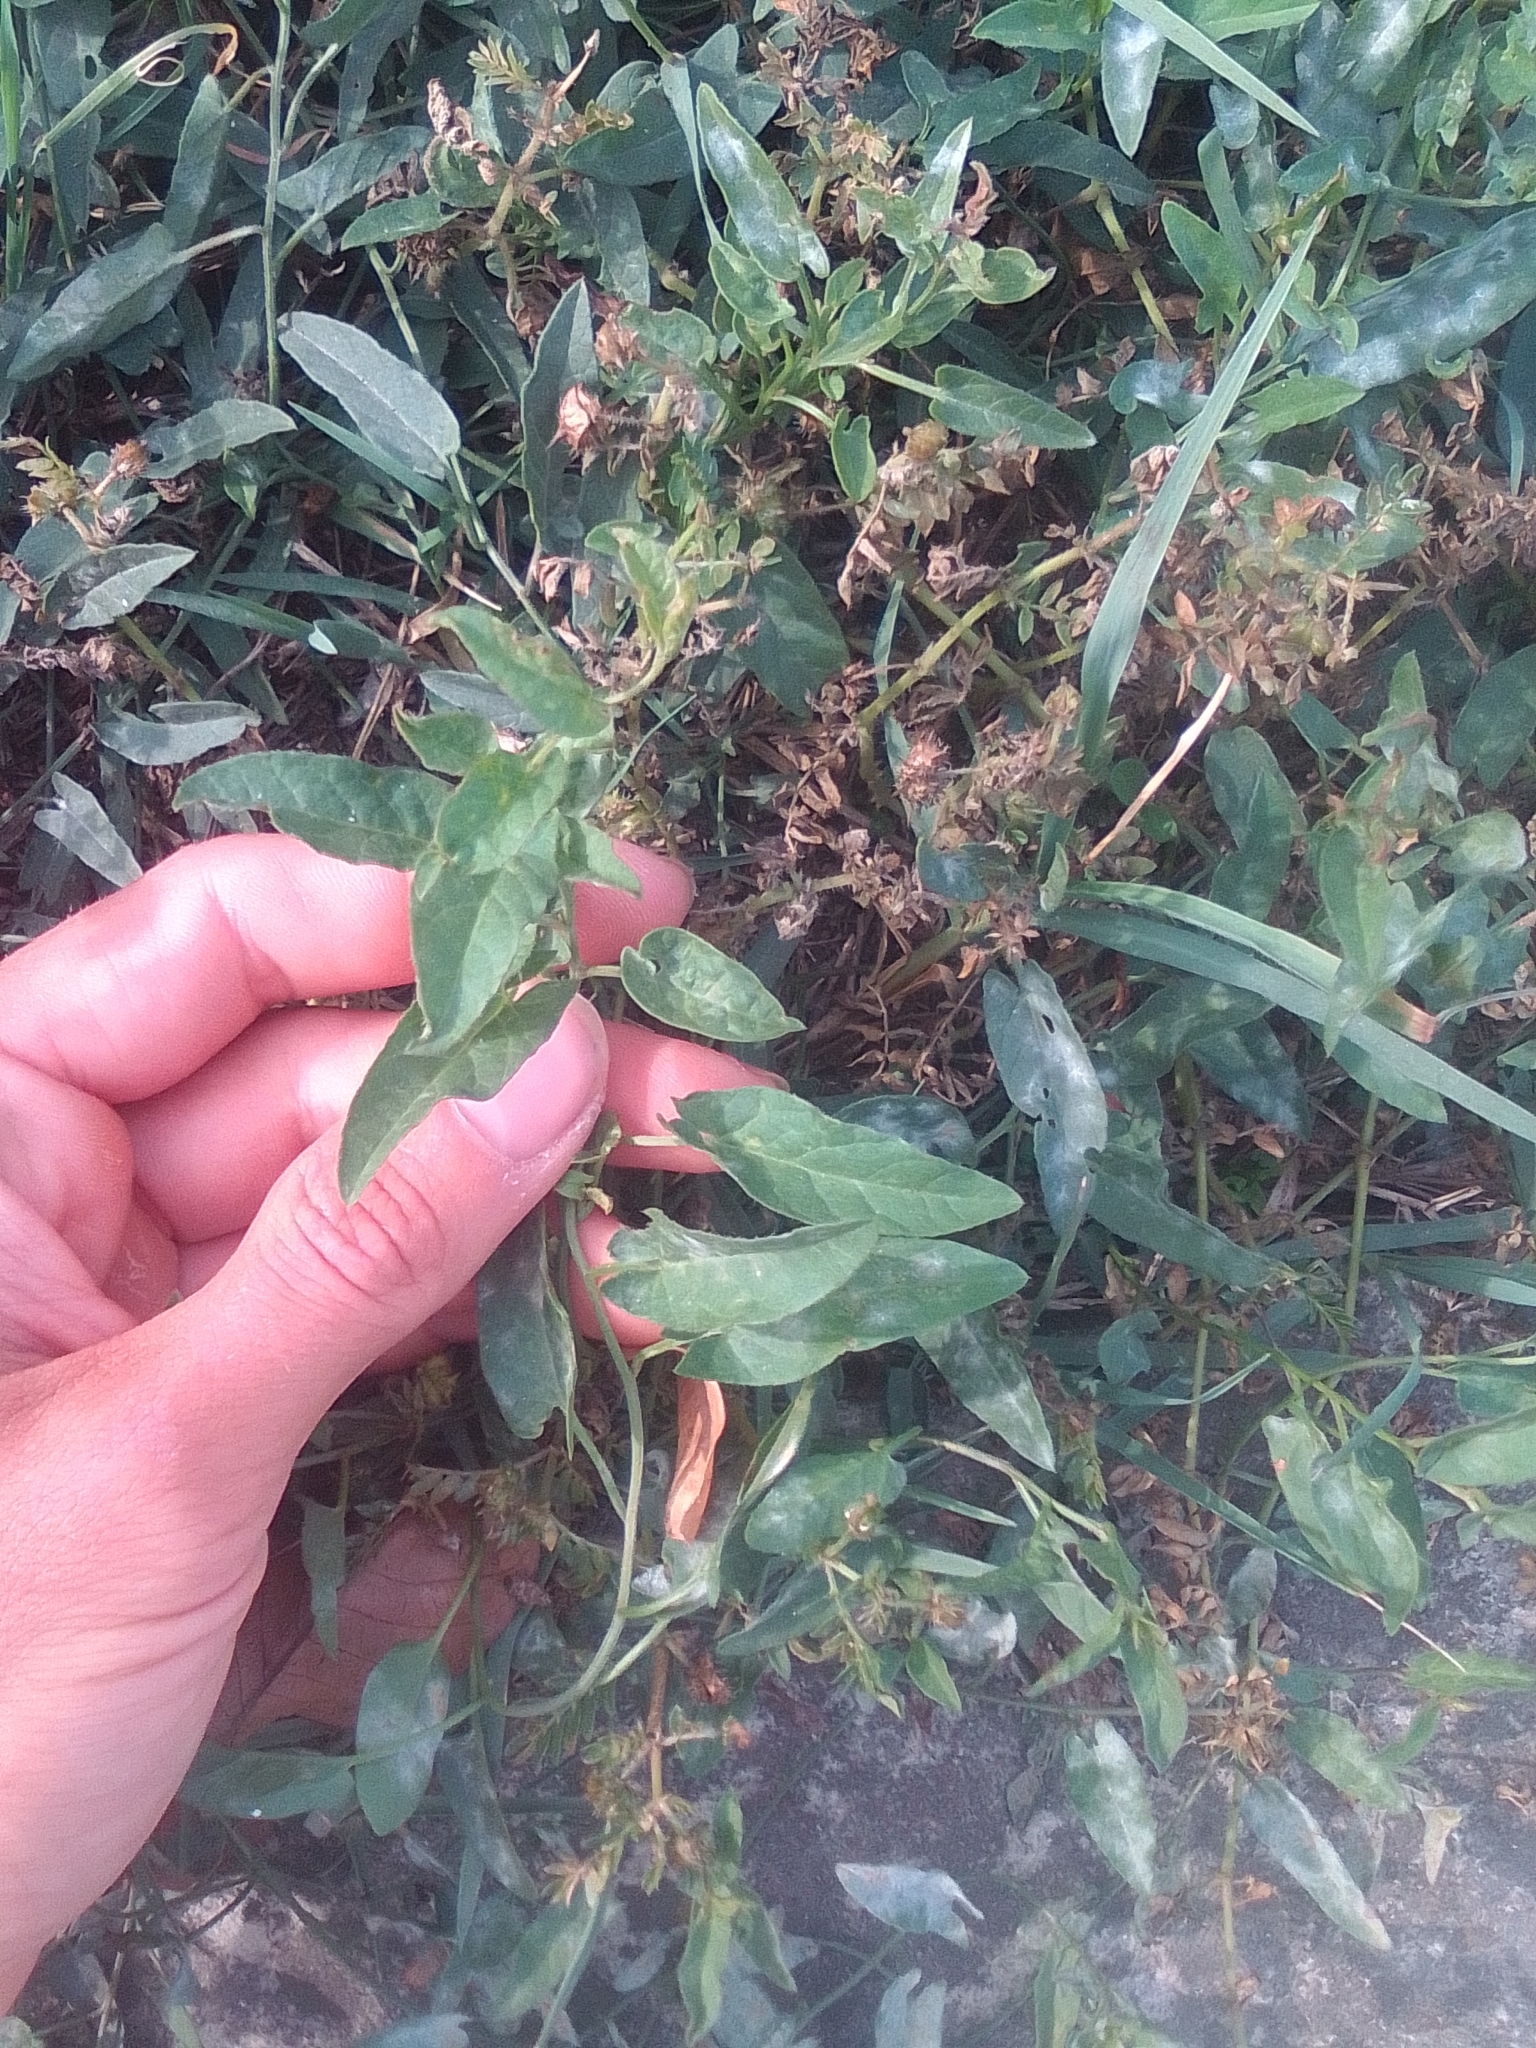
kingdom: Plantae
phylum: Tracheophyta
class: Magnoliopsida
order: Solanales
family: Convolvulaceae
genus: Convolvulus
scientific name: Convolvulus arvensis
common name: Field bindweed
